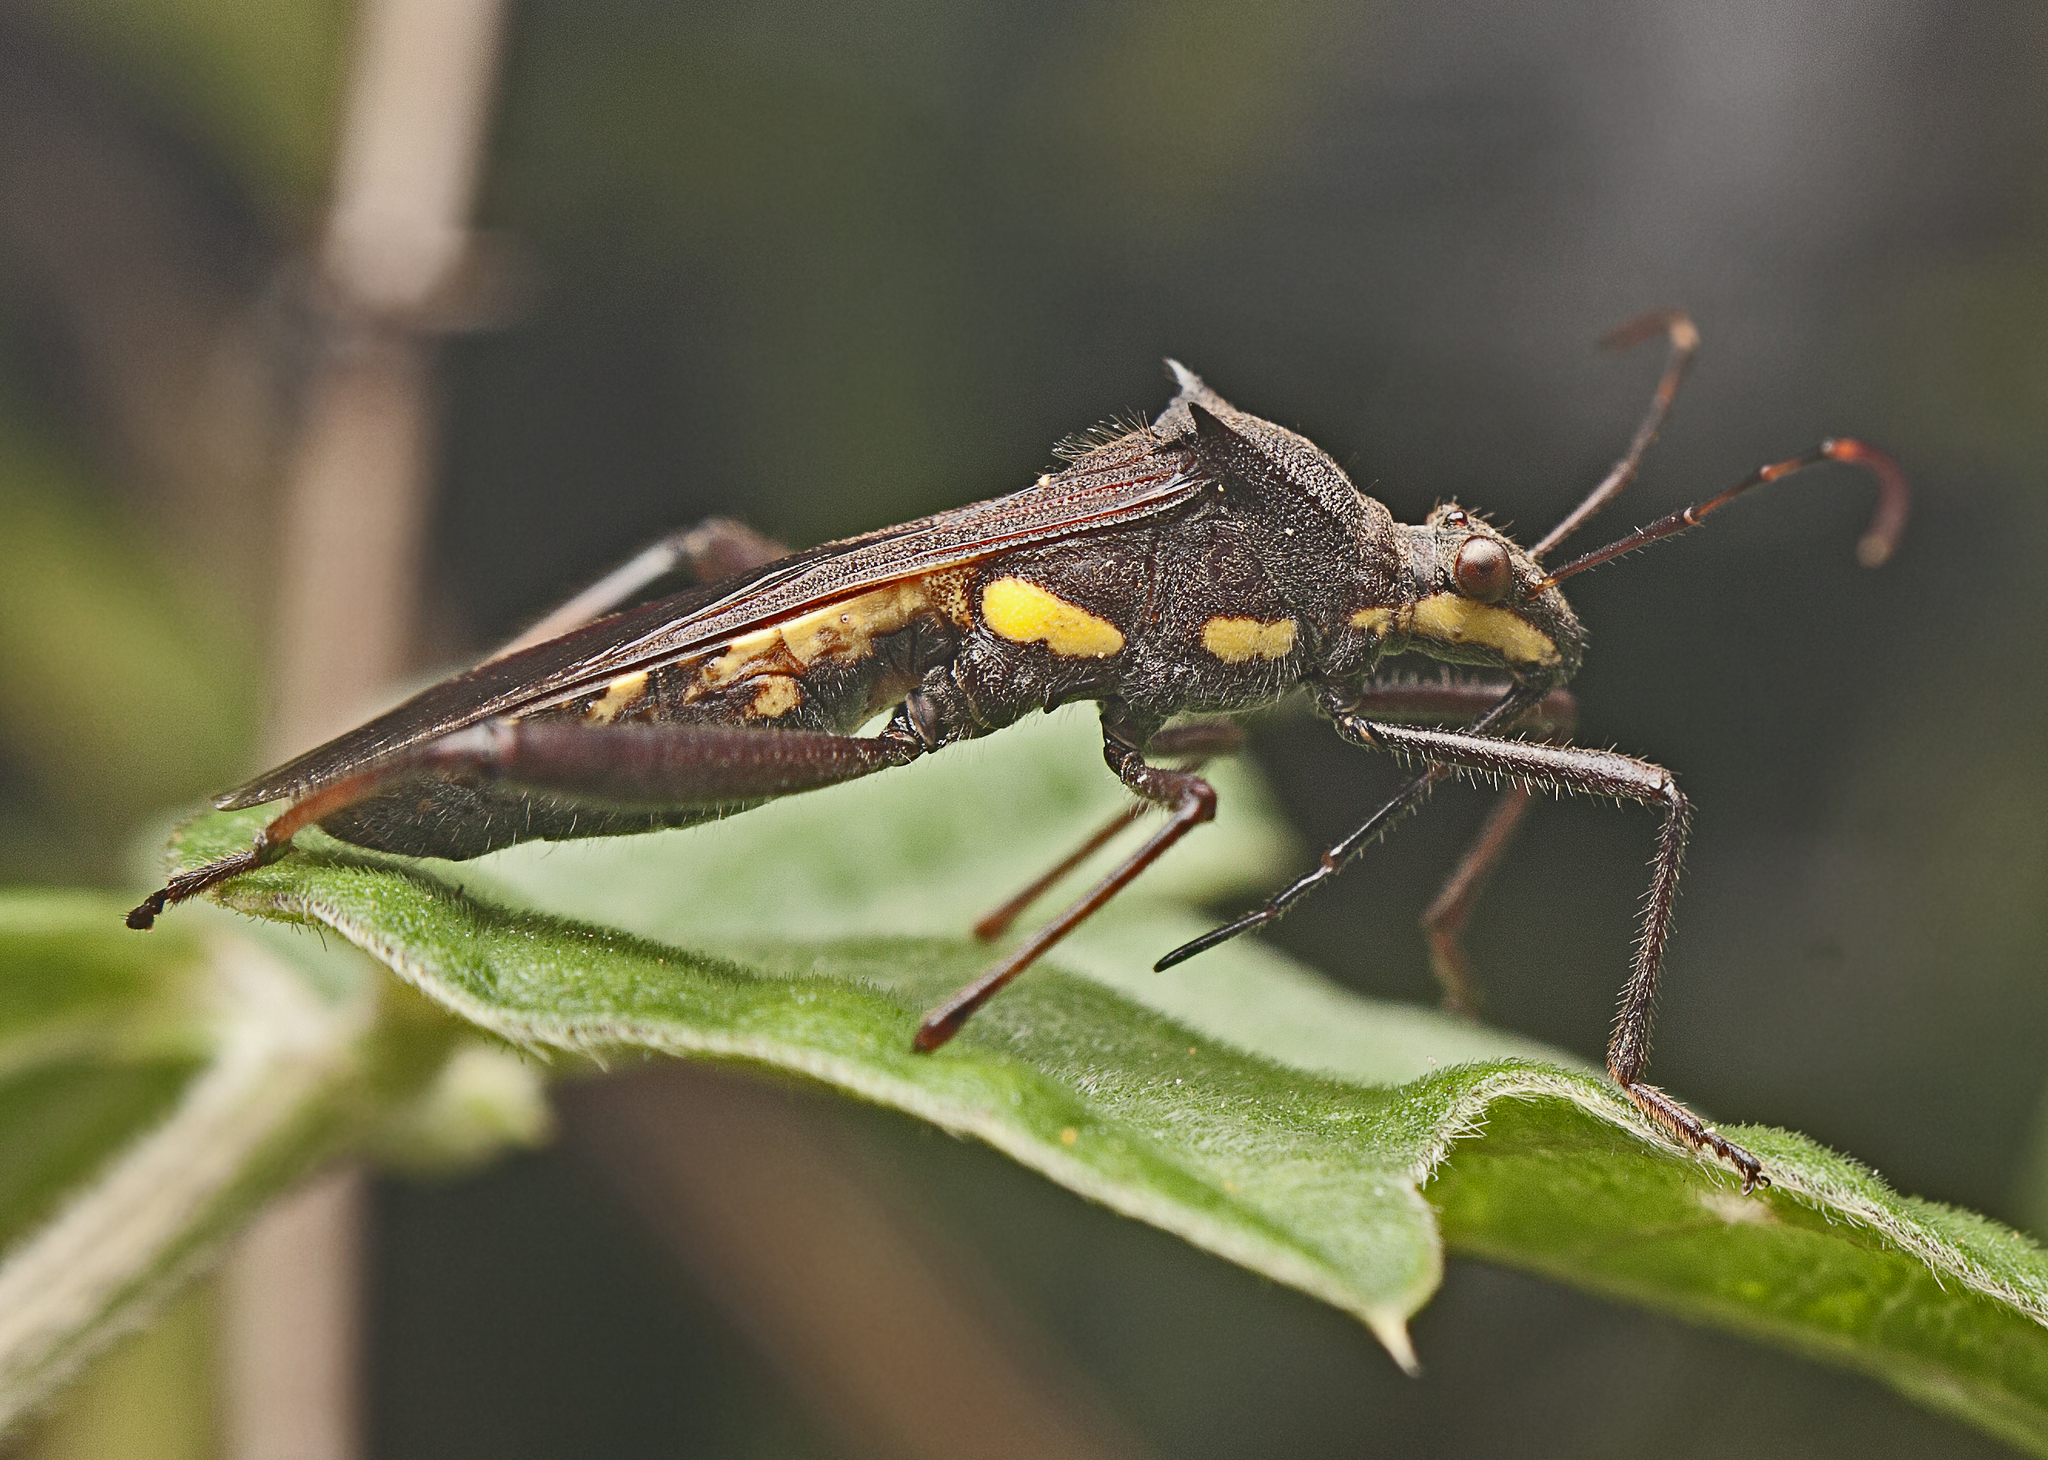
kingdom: Animalia
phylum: Arthropoda
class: Insecta
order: Hemiptera
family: Alydidae
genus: Riptortus
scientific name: Riptortus serripes
